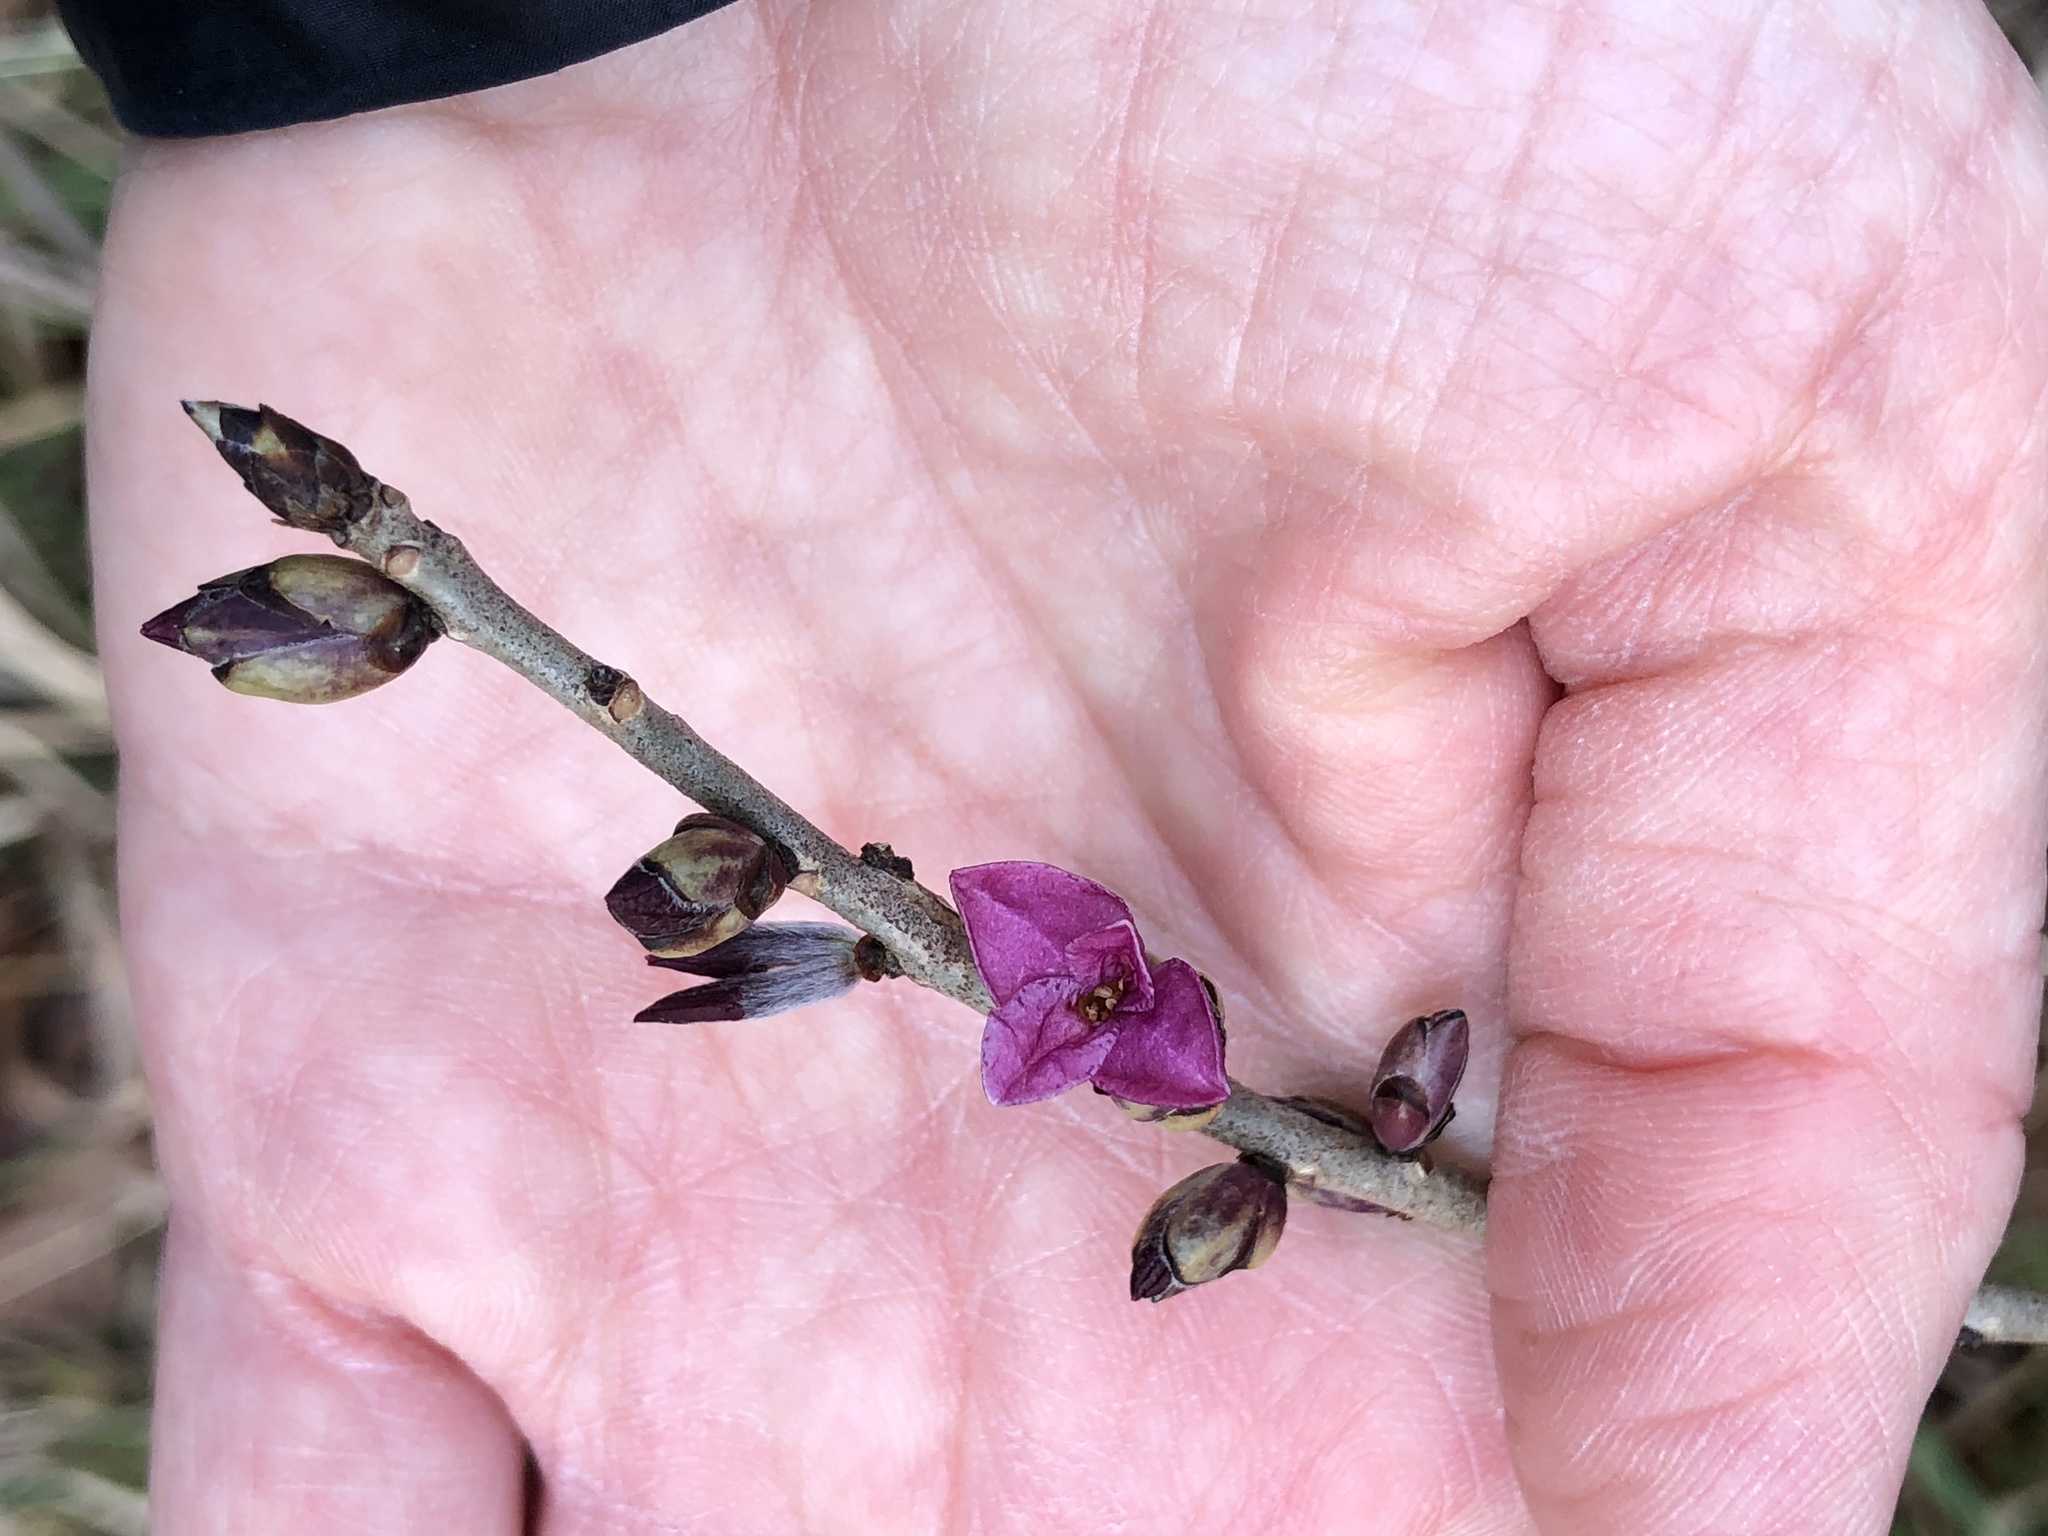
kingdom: Plantae
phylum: Tracheophyta
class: Magnoliopsida
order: Malvales
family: Thymelaeaceae
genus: Daphne
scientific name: Daphne mezereum
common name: Mezereon
